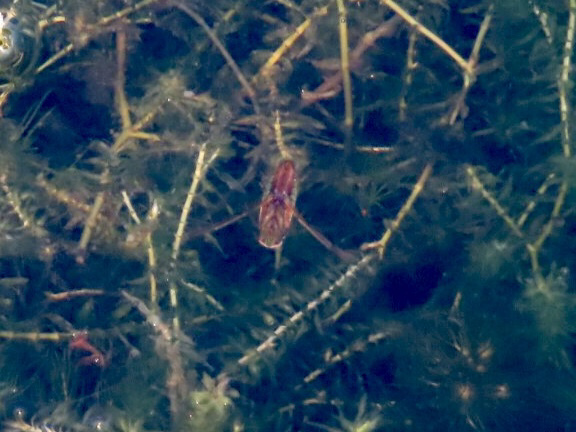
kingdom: Animalia
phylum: Arthropoda
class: Insecta
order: Hemiptera
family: Notonectidae
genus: Notonecta
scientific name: Notonecta
